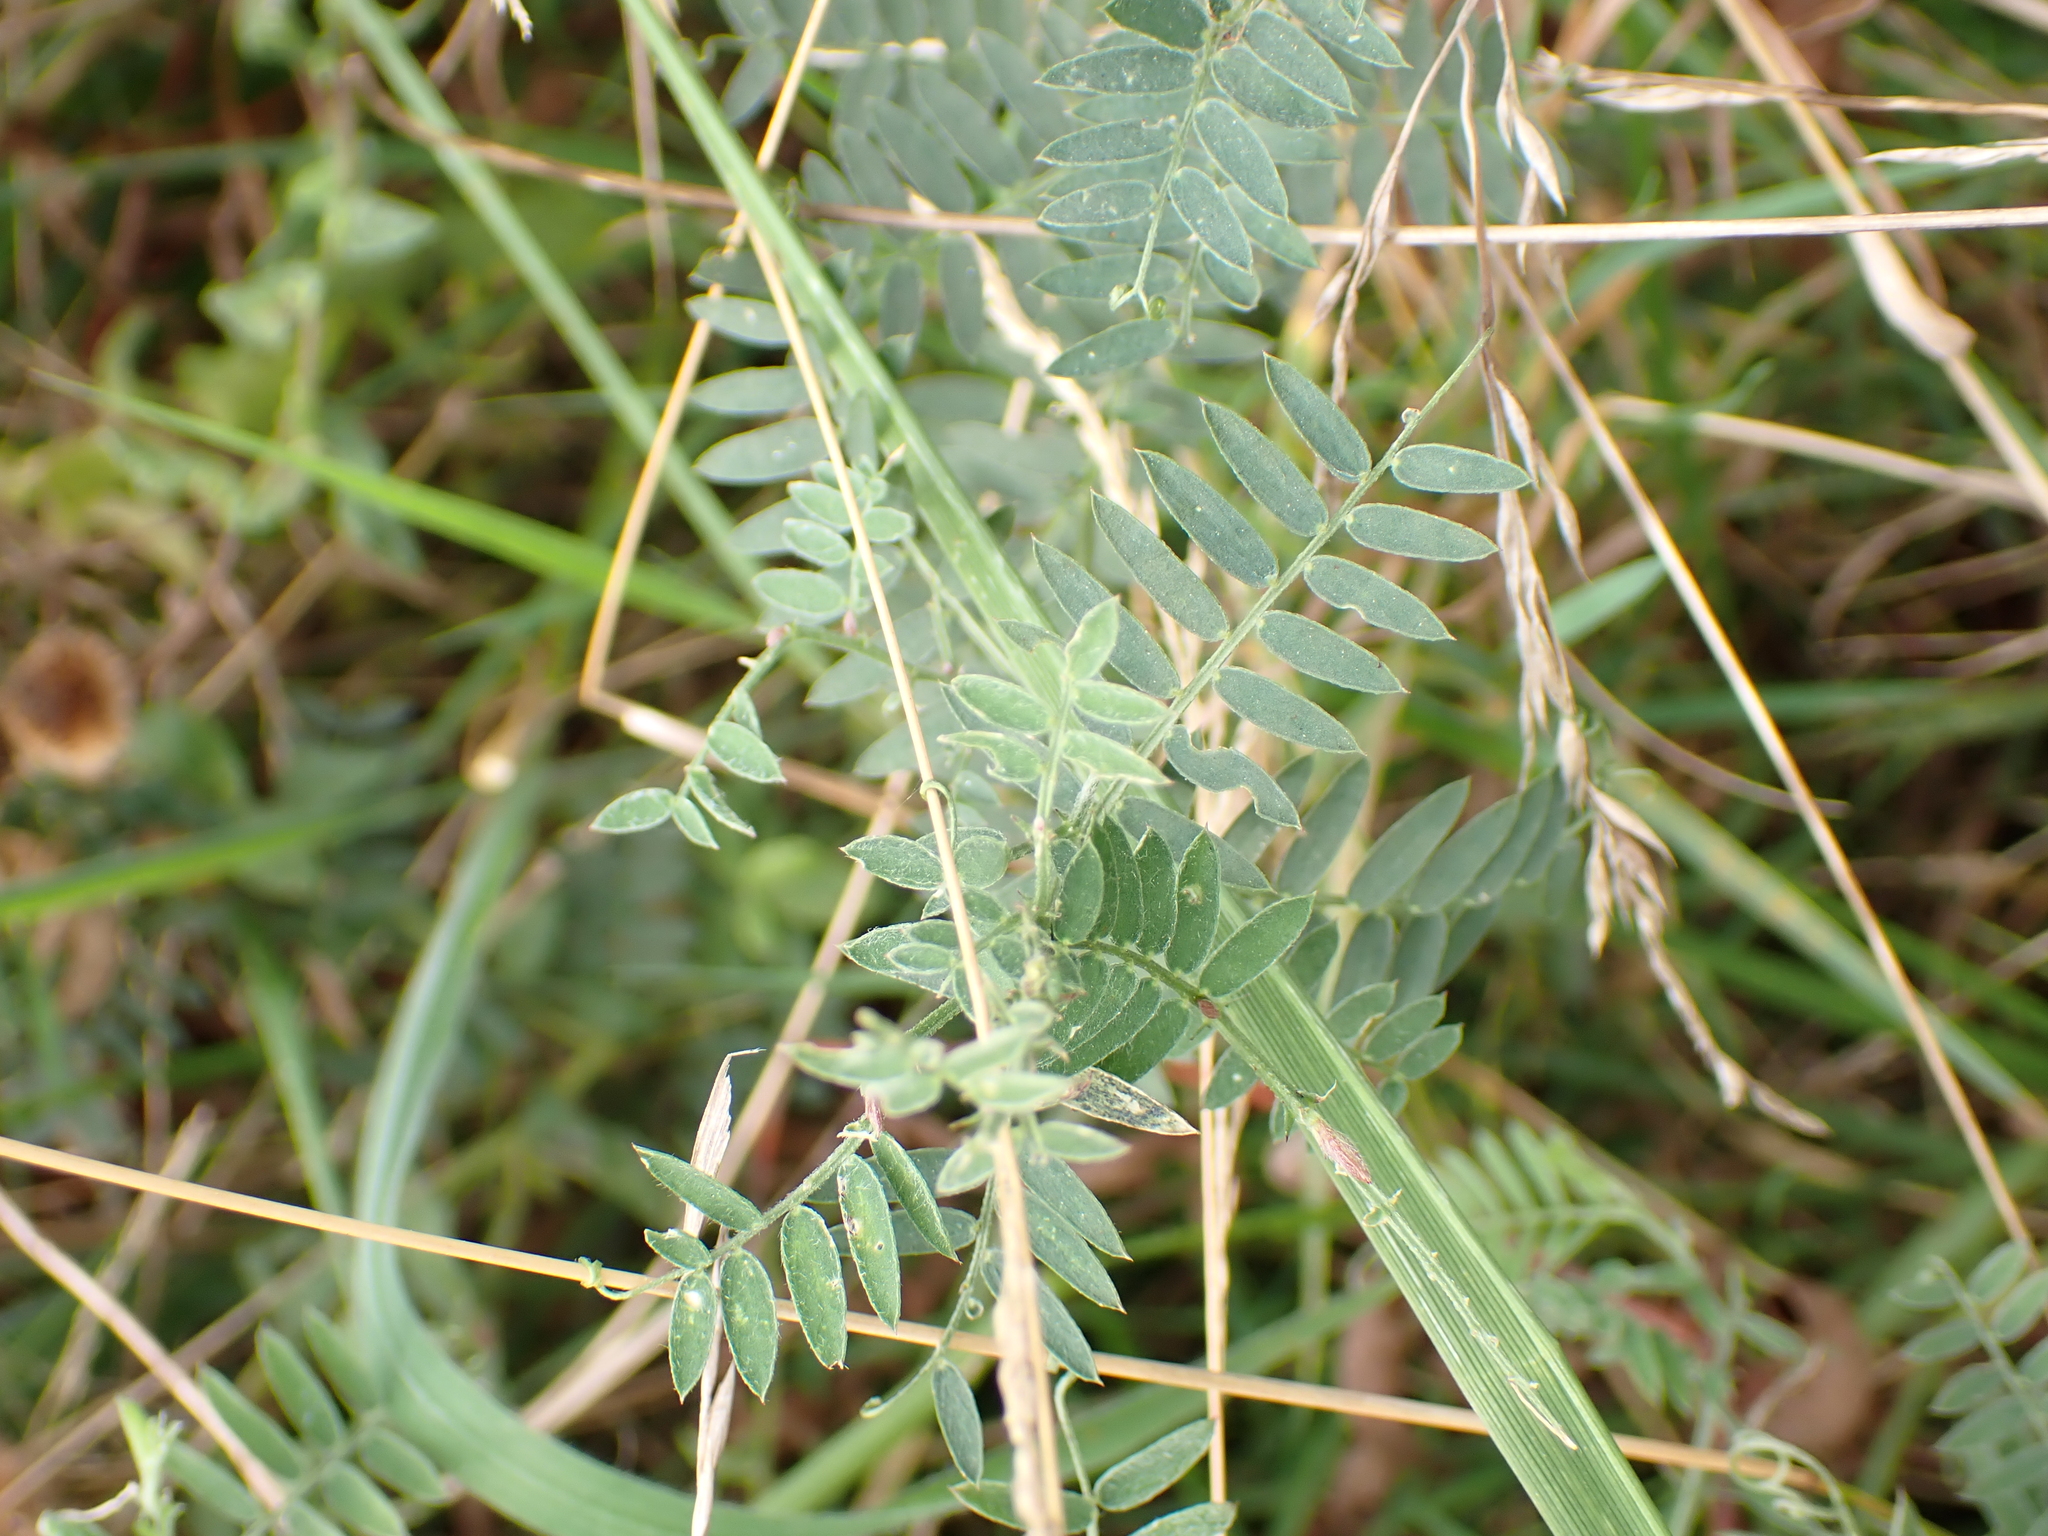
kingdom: Plantae
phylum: Tracheophyta
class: Magnoliopsida
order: Fabales
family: Fabaceae
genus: Vicia
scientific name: Vicia cracca
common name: Bird vetch
